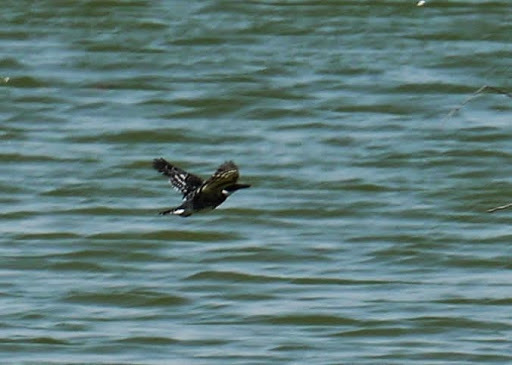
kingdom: Animalia
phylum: Chordata
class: Aves
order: Coraciiformes
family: Alcedinidae
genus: Chloroceryle
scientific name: Chloroceryle americana
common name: Green kingfisher
